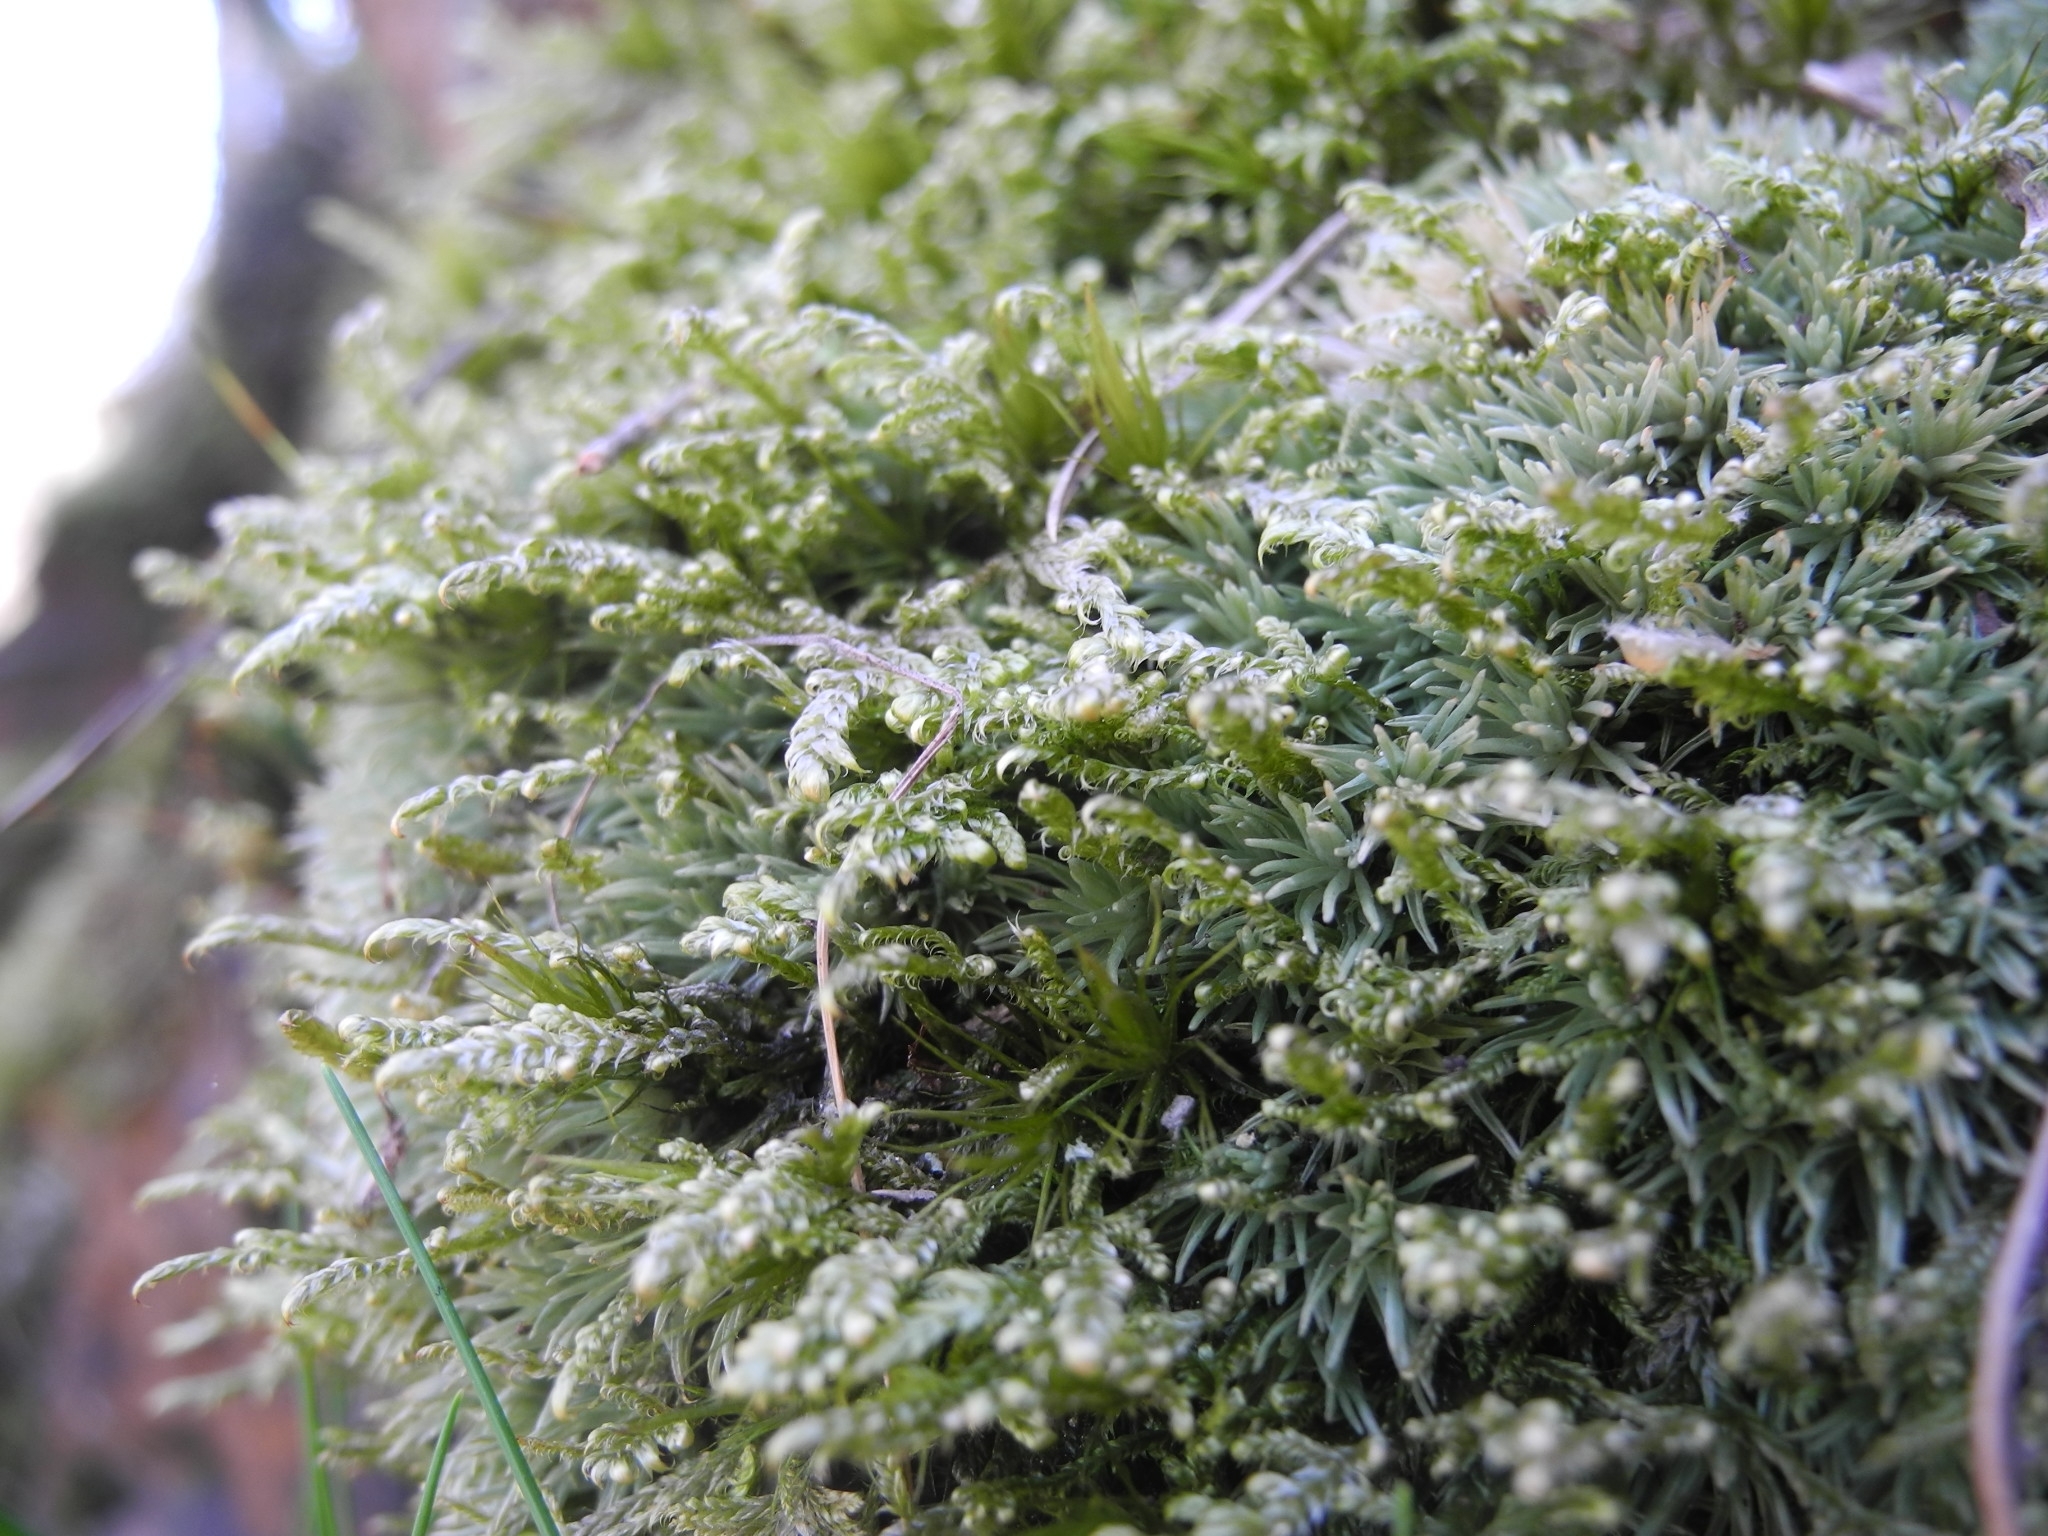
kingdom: Plantae
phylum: Bryophyta
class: Bryopsida
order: Dicranales
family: Leucobryaceae
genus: Leucobryum
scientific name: Leucobryum glaucum
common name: Large white-moss
